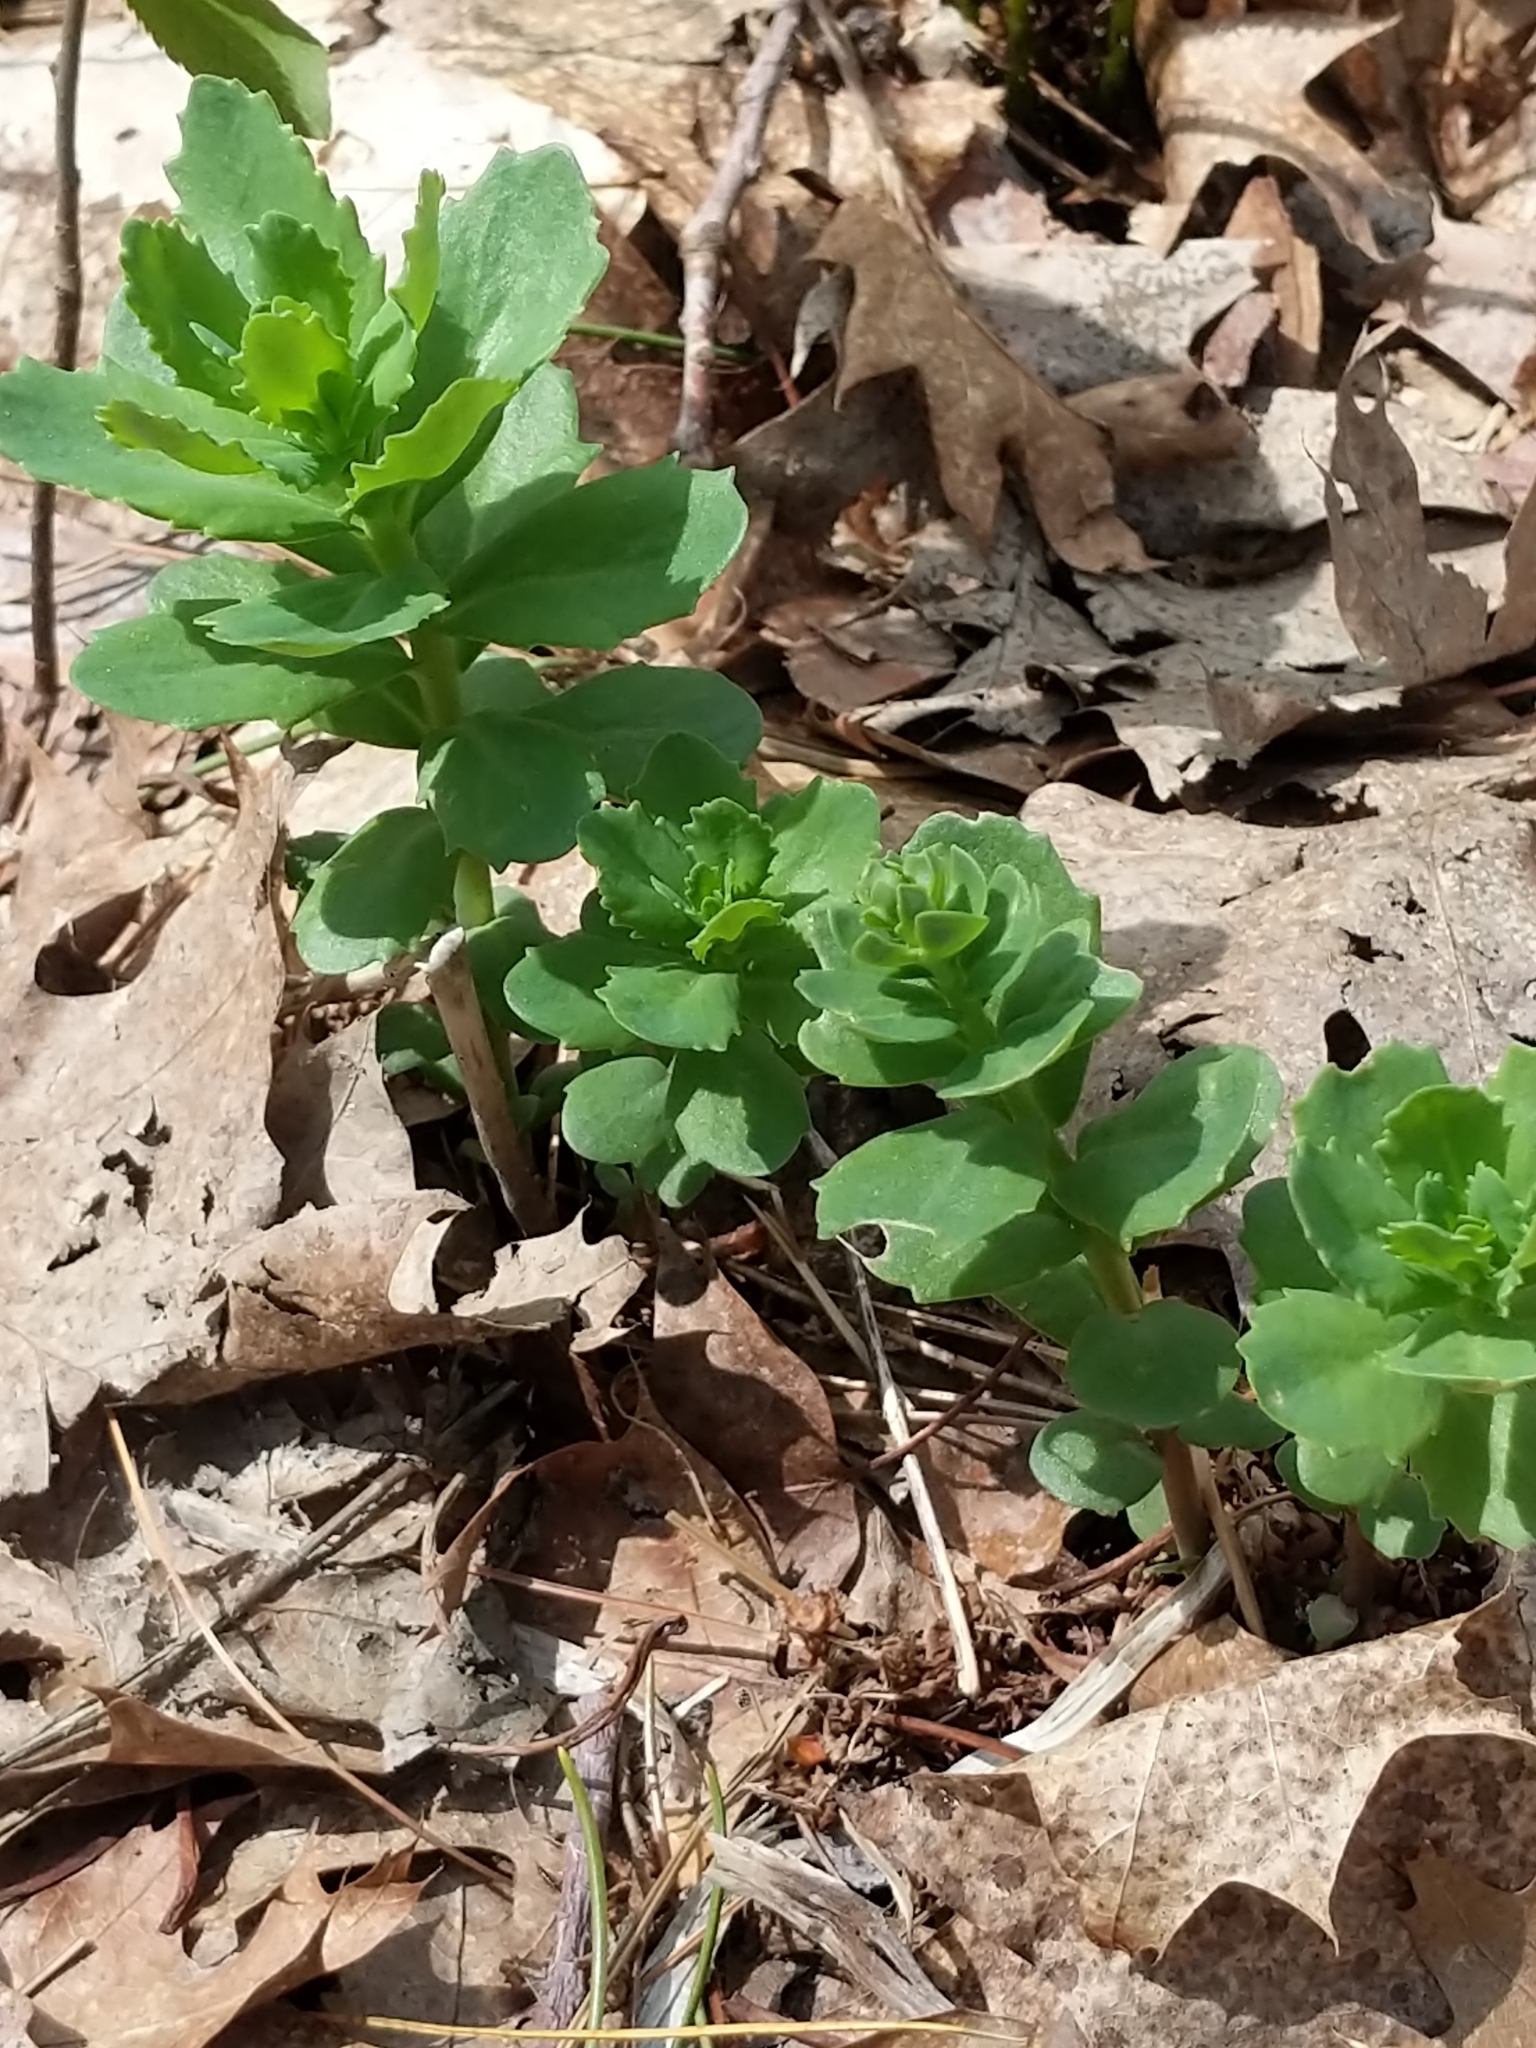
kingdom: Plantae
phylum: Tracheophyta
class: Magnoliopsida
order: Saxifragales
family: Crassulaceae
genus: Hylotelephium
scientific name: Hylotelephium telephium
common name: Live-forever
